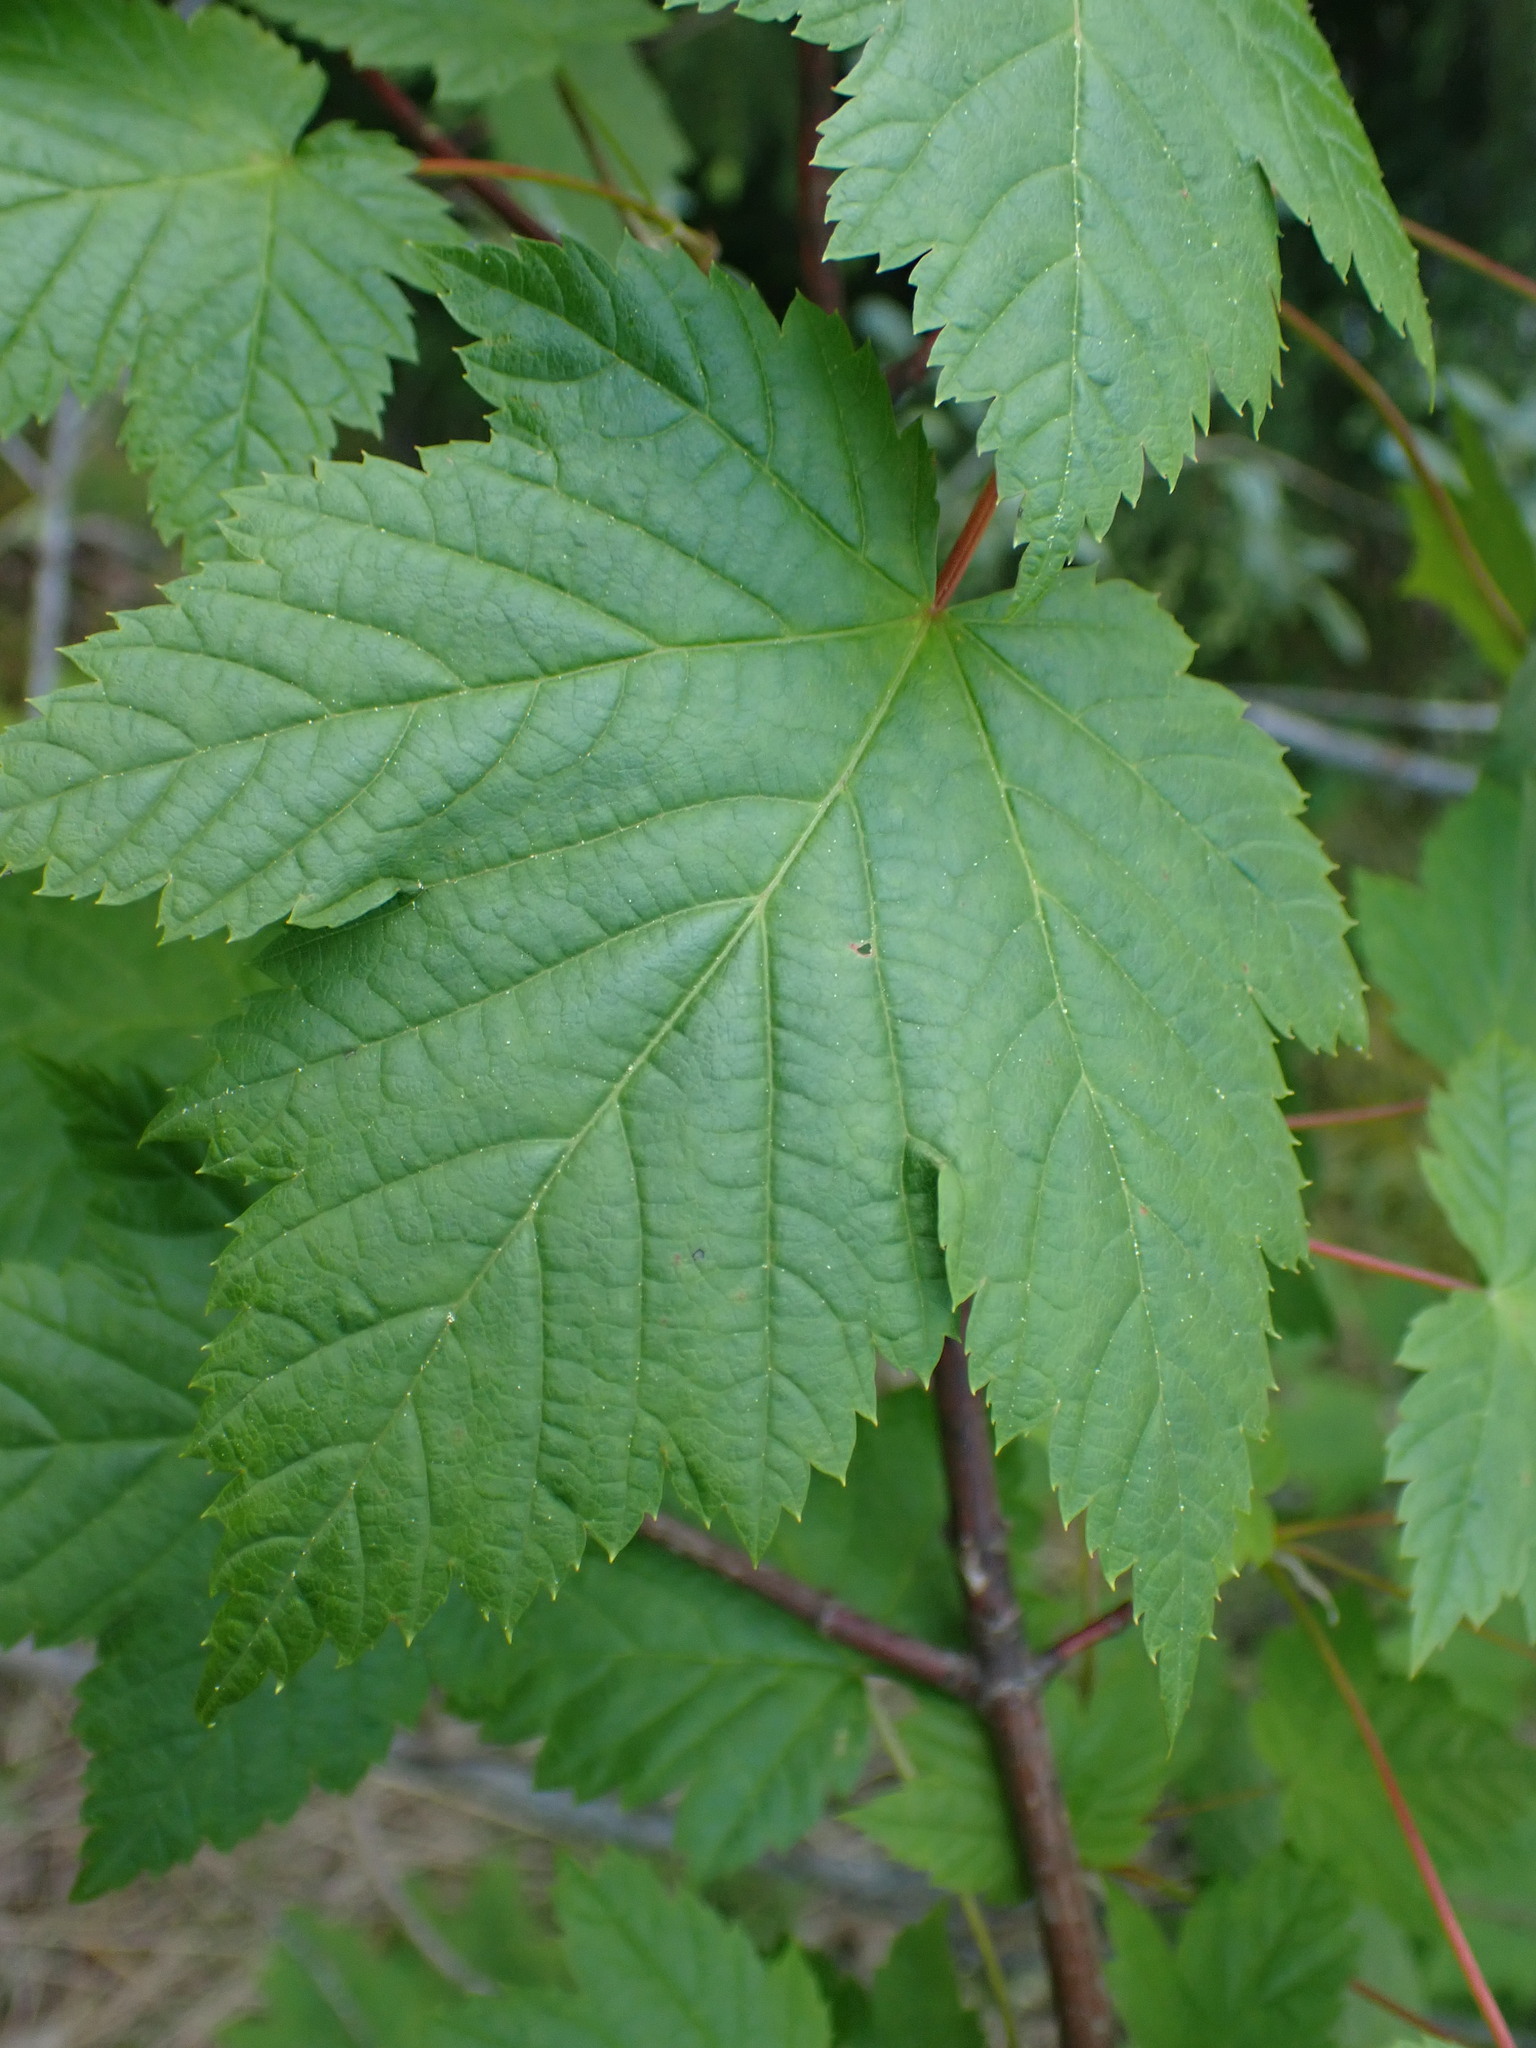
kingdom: Plantae
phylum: Tracheophyta
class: Magnoliopsida
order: Sapindales
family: Sapindaceae
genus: Acer
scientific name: Acer glabrum
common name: Rocky mountain maple
